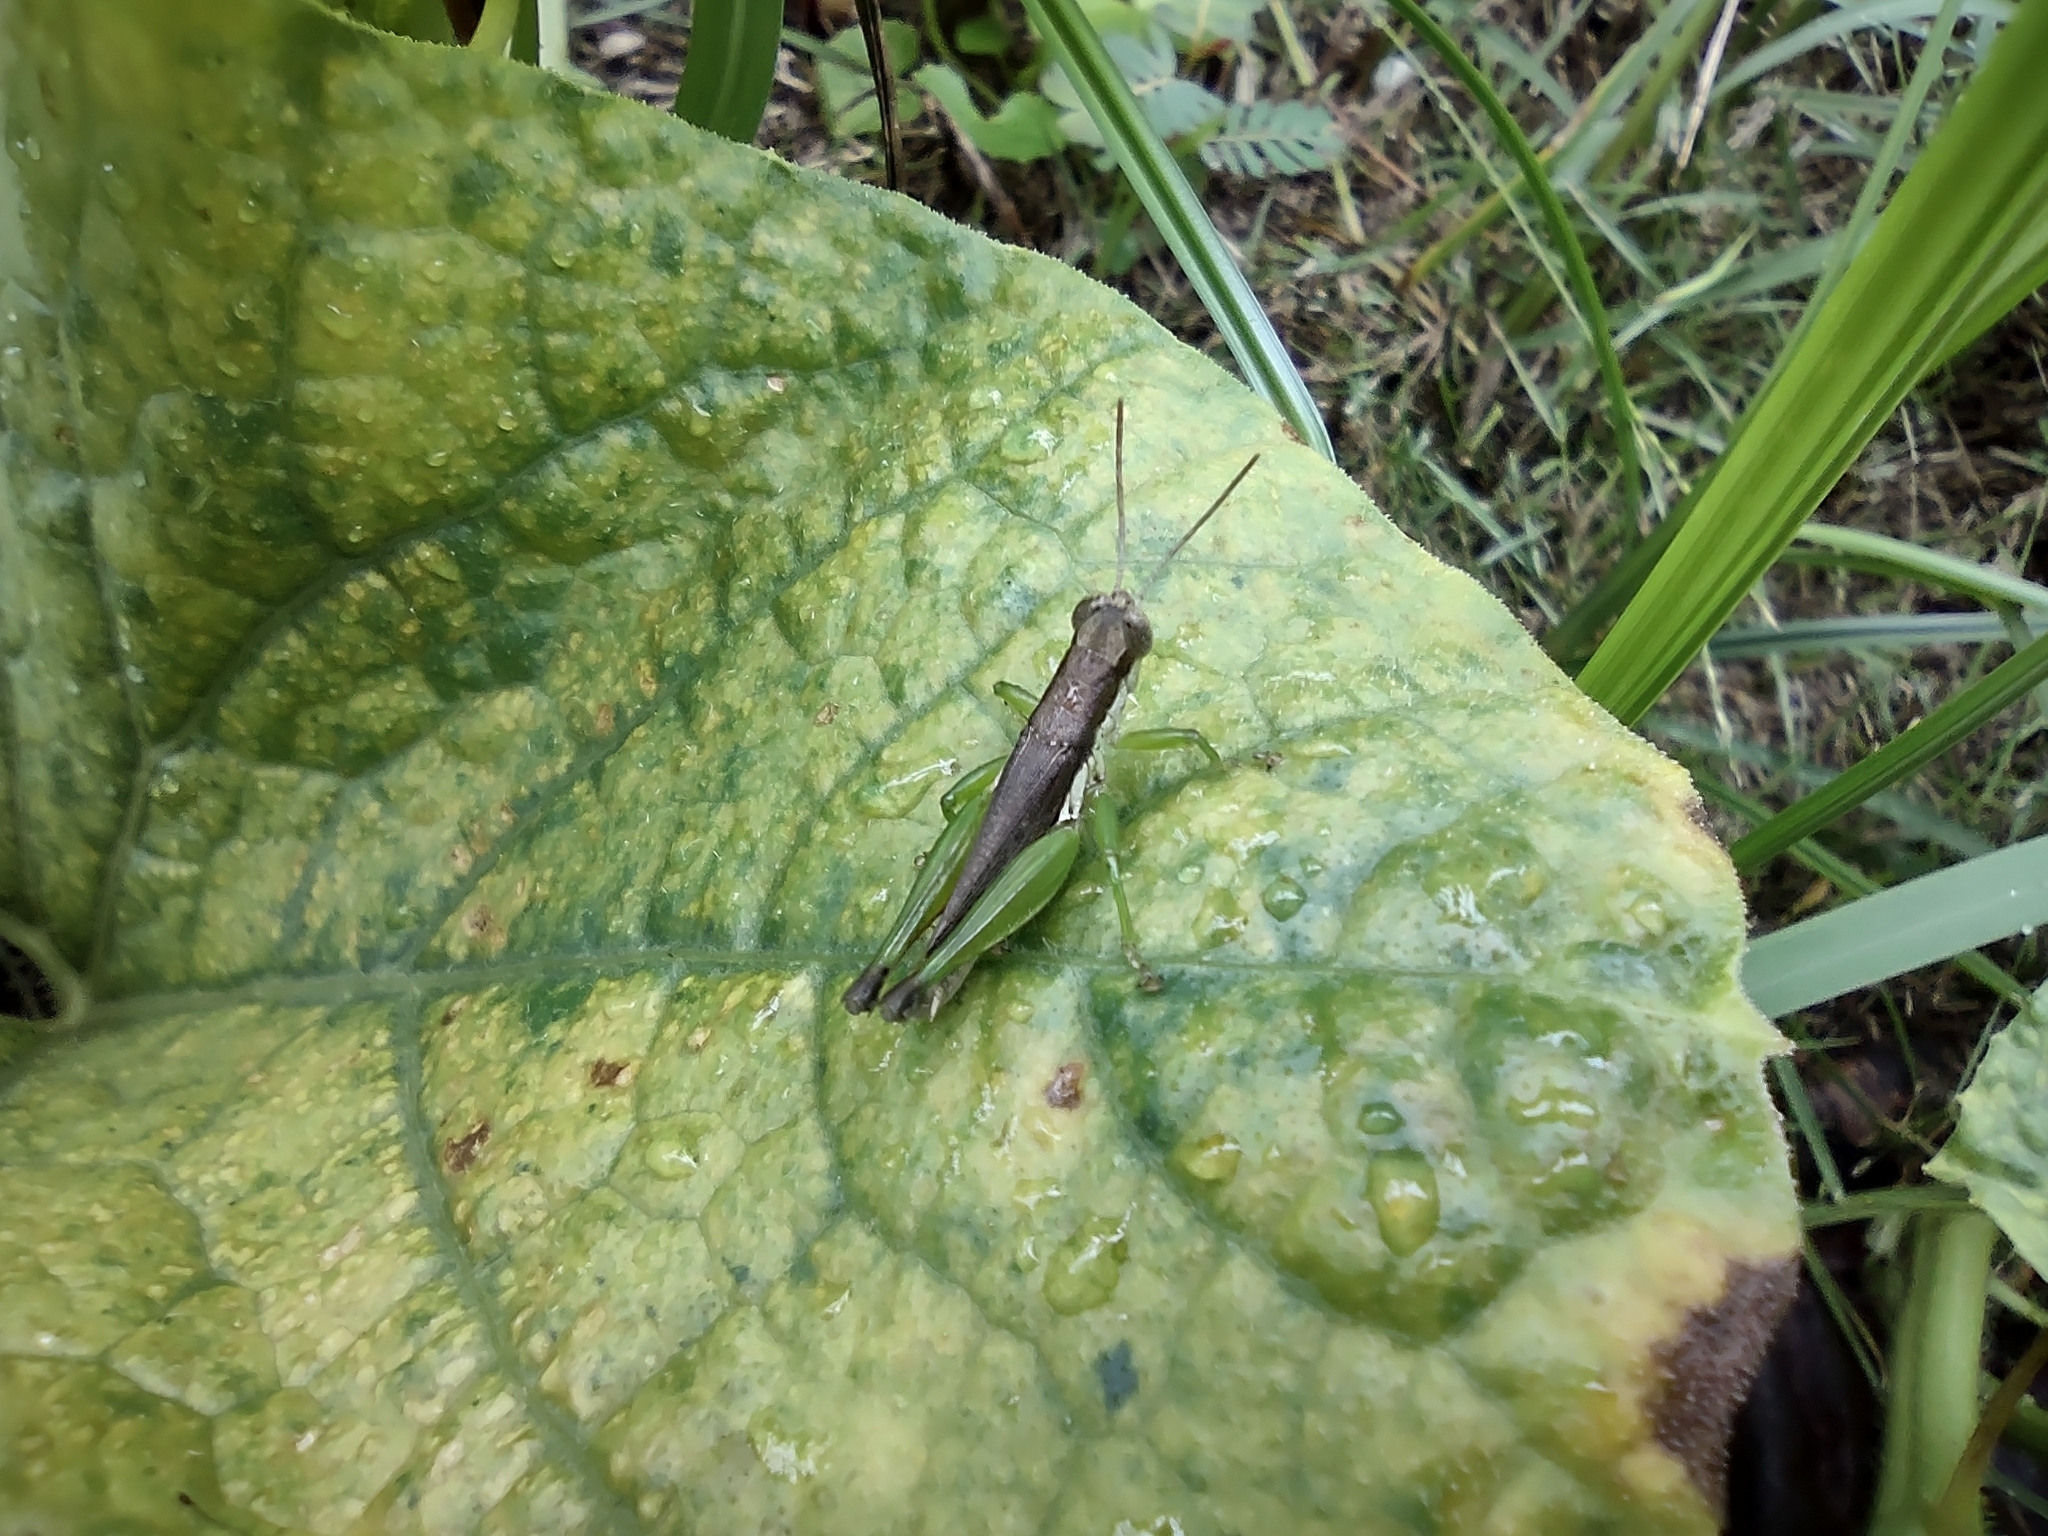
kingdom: Animalia
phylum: Arthropoda
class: Insecta
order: Orthoptera
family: Acrididae
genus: Pseudoxya
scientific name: Pseudoxya diminuta
